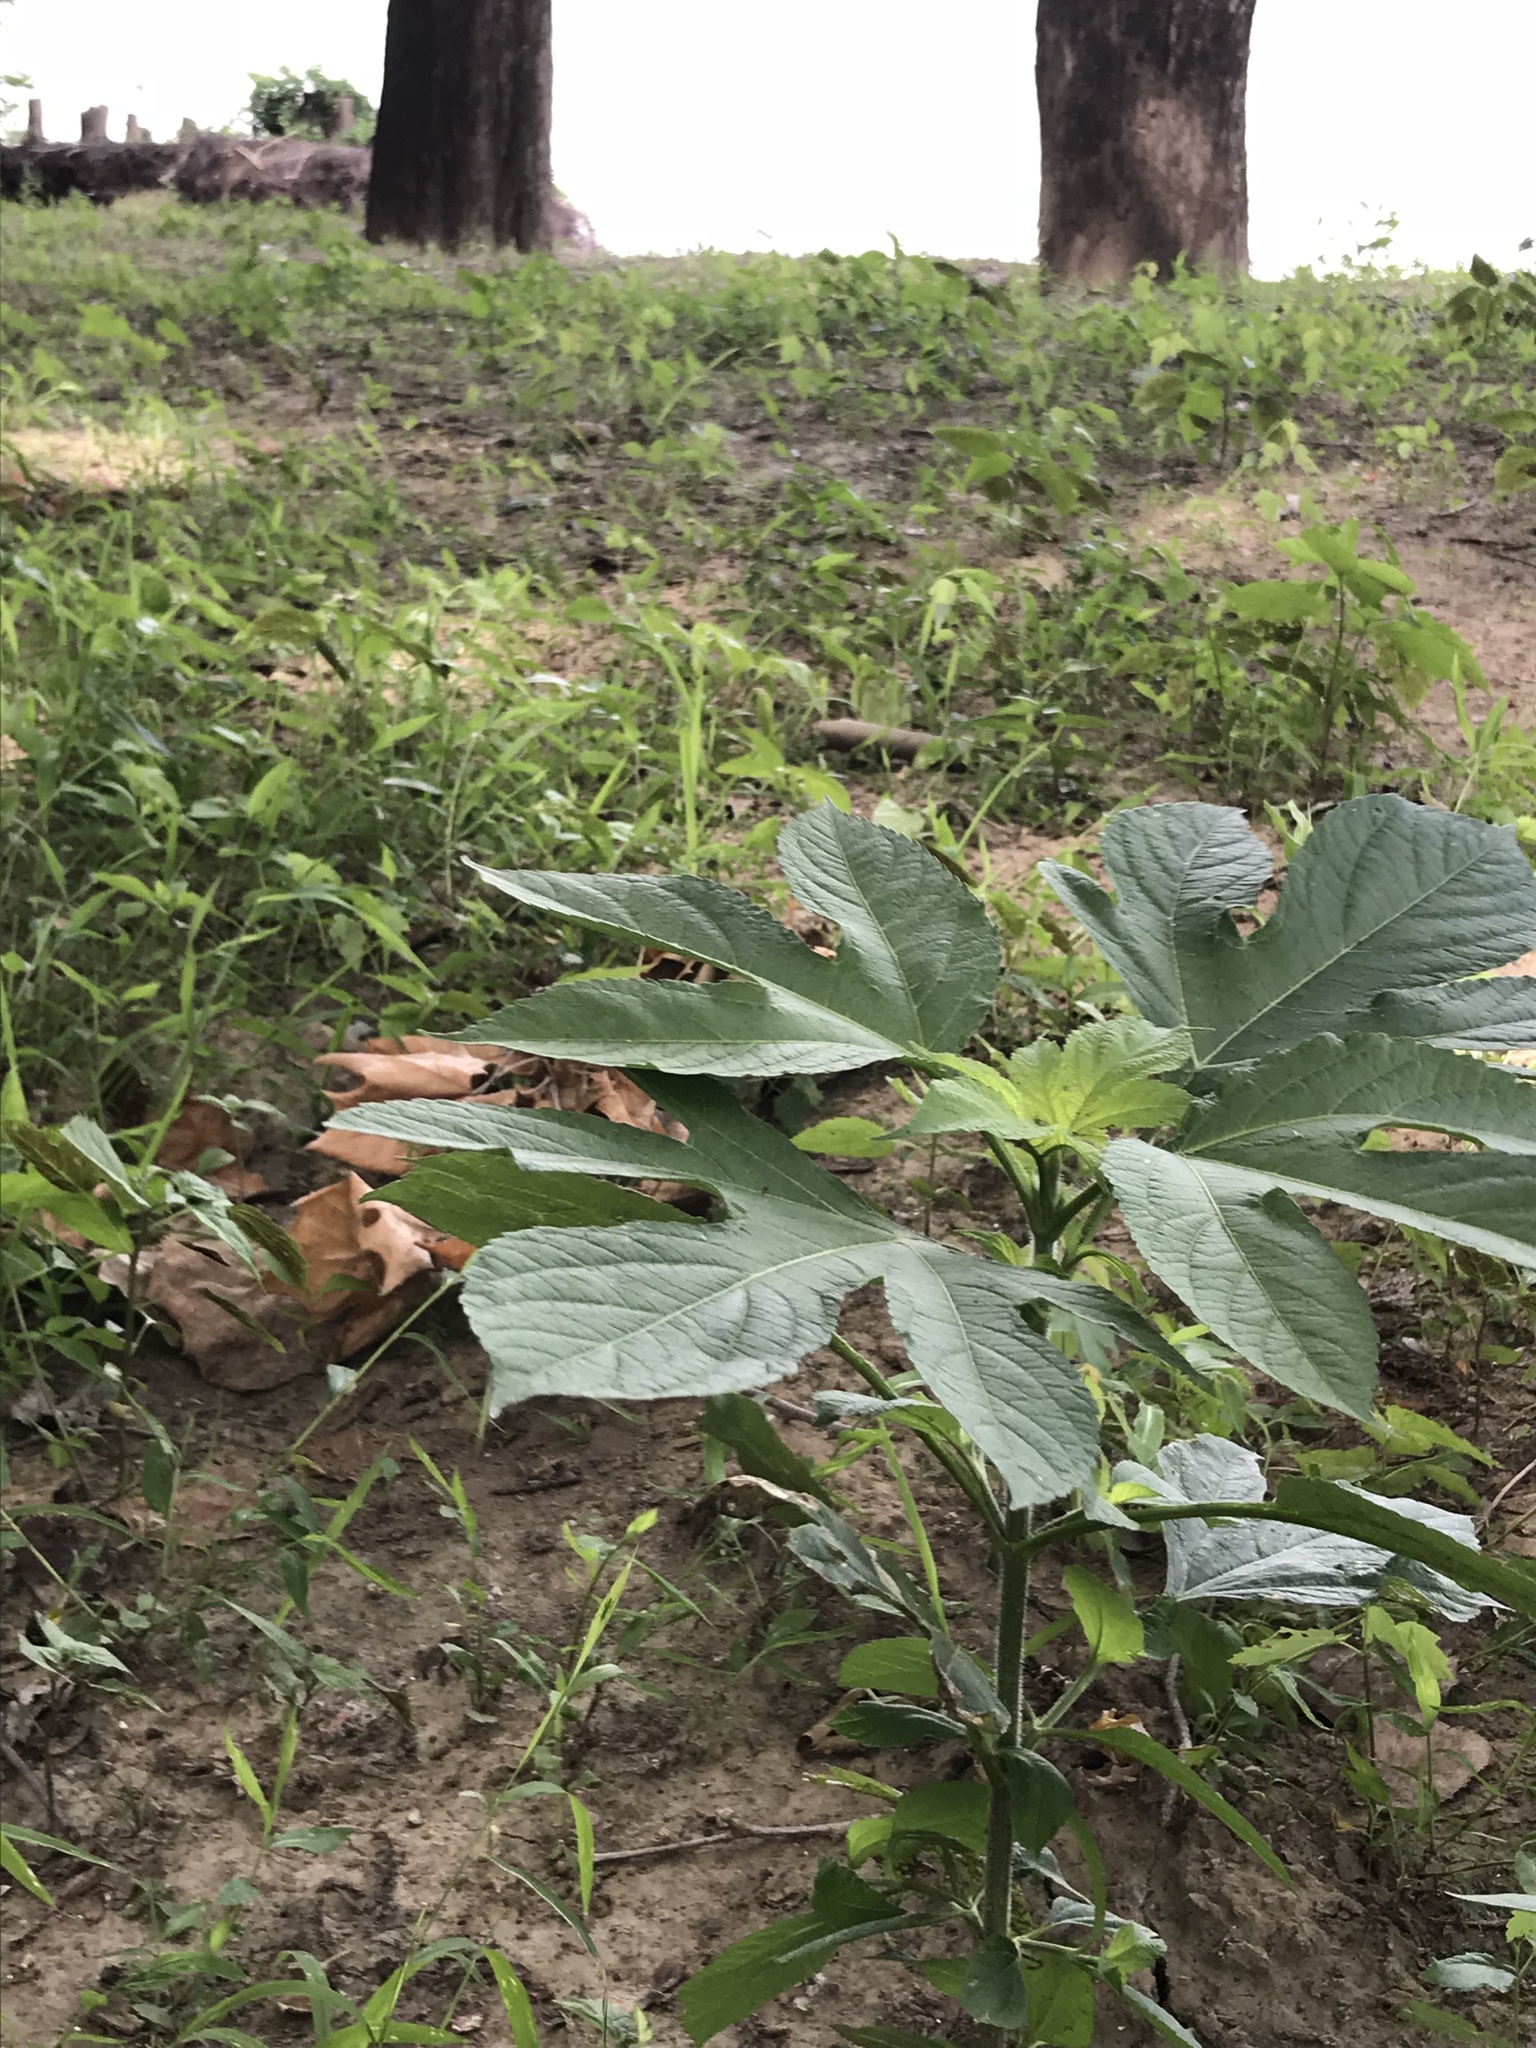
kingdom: Plantae
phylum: Tracheophyta
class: Magnoliopsida
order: Asterales
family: Asteraceae
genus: Ambrosia
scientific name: Ambrosia trifida
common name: Giant ragweed
